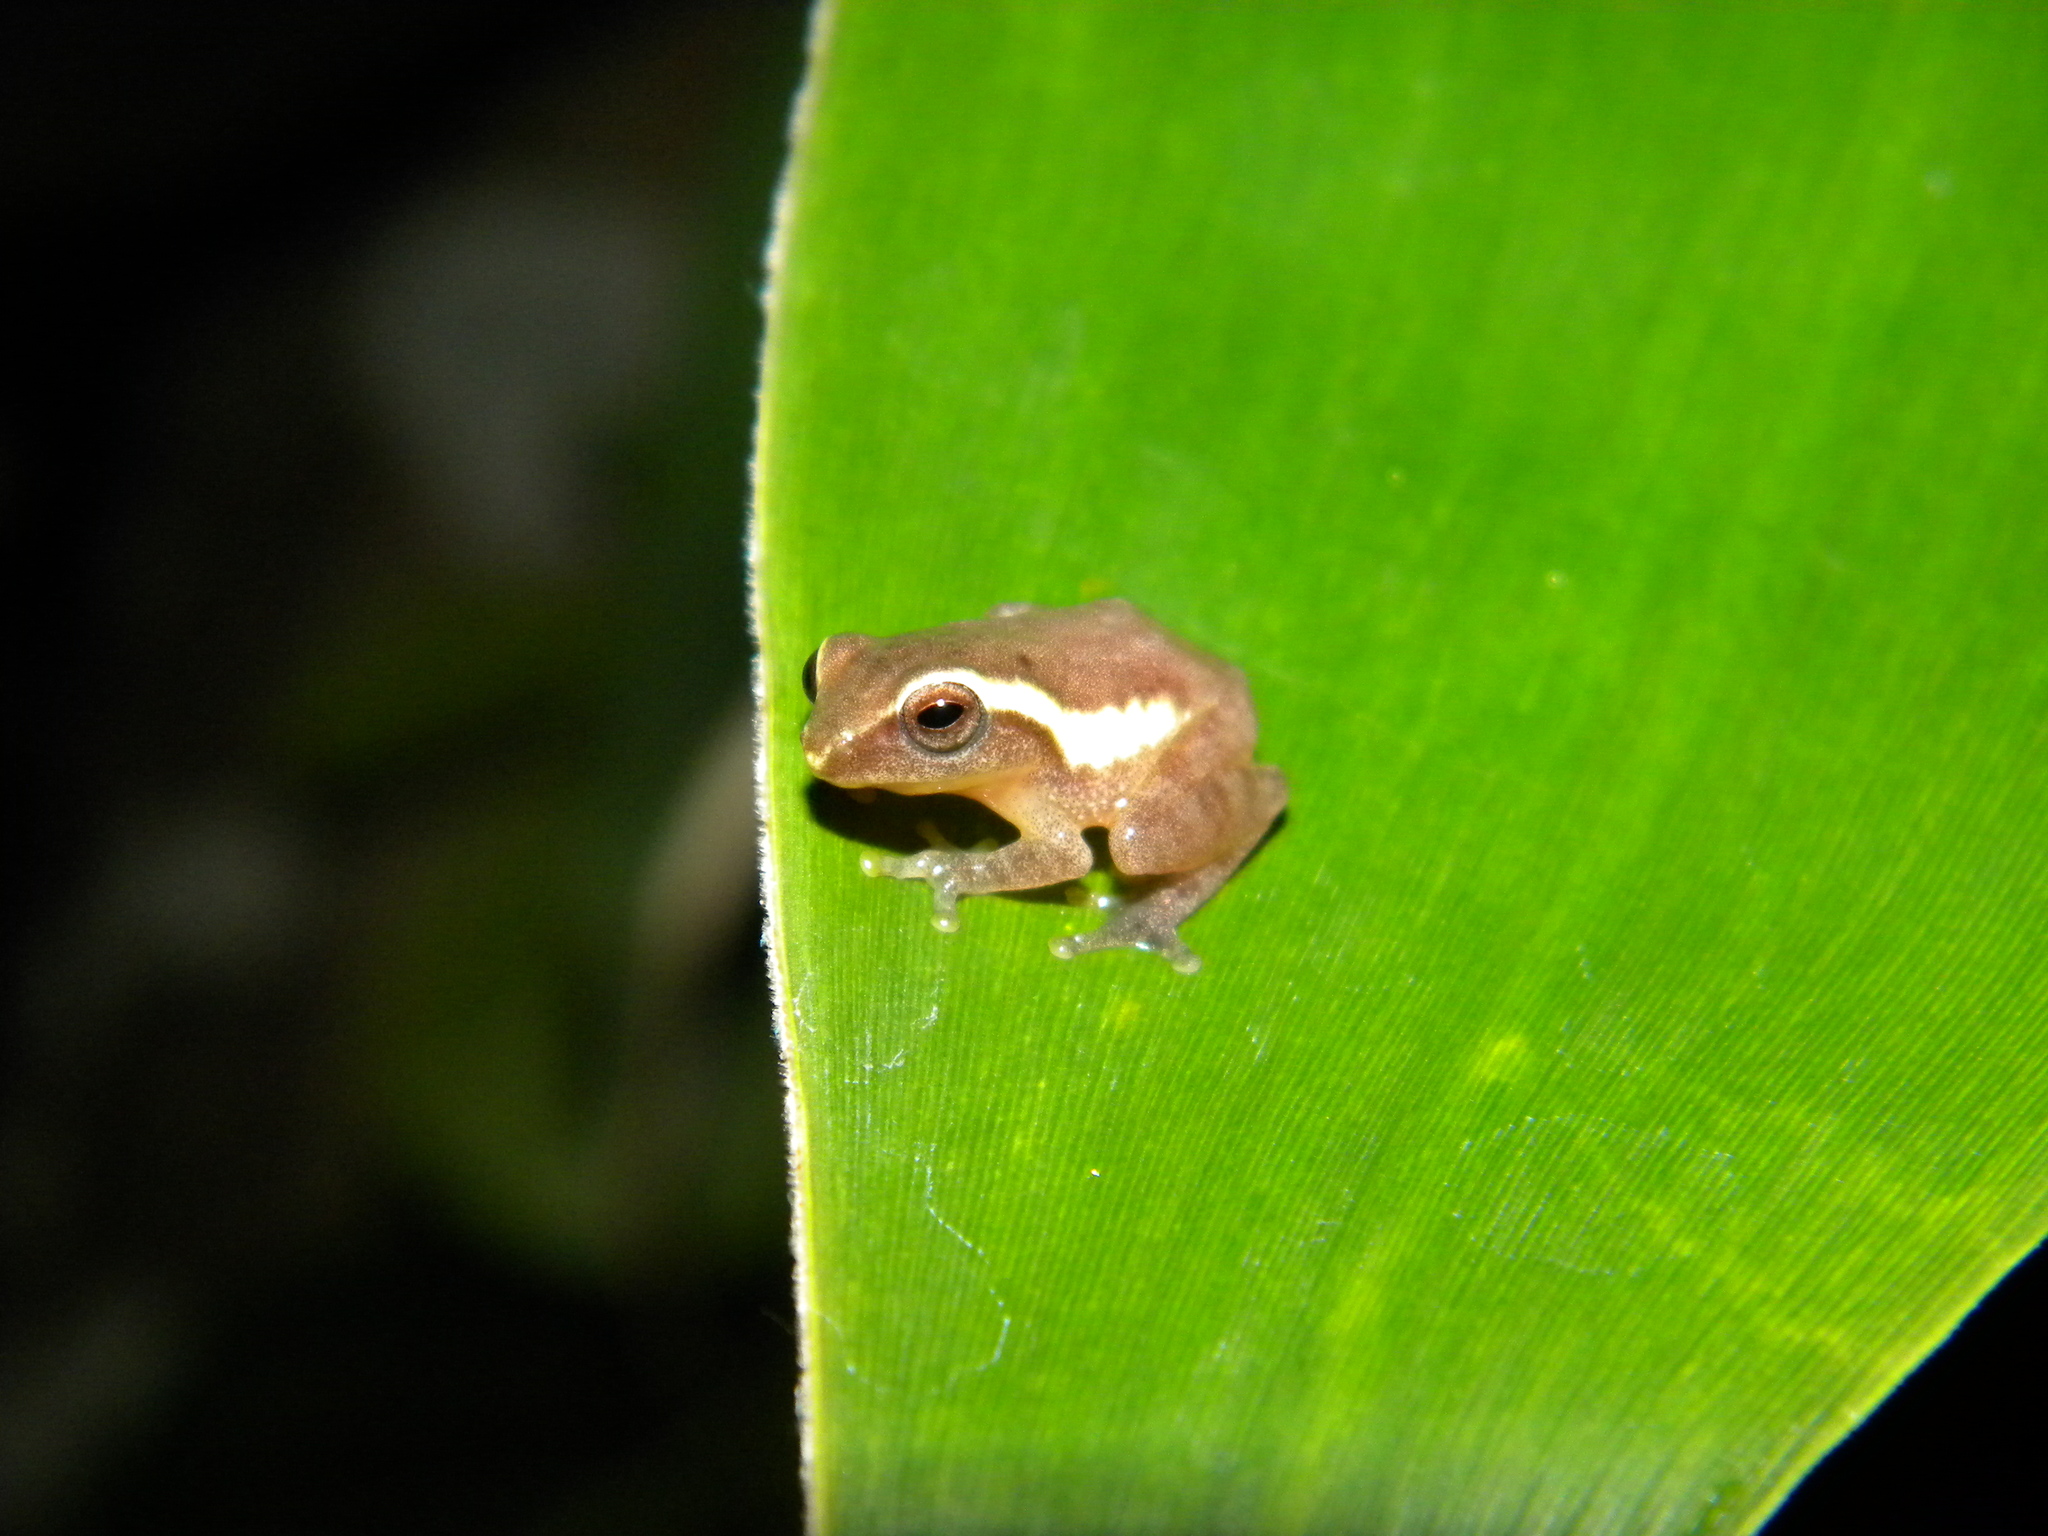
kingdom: Animalia
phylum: Chordata
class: Amphibia
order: Anura
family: Rhacophoridae
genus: Raorchestes
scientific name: Raorchestes akroparallagi
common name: Variable bush frog
